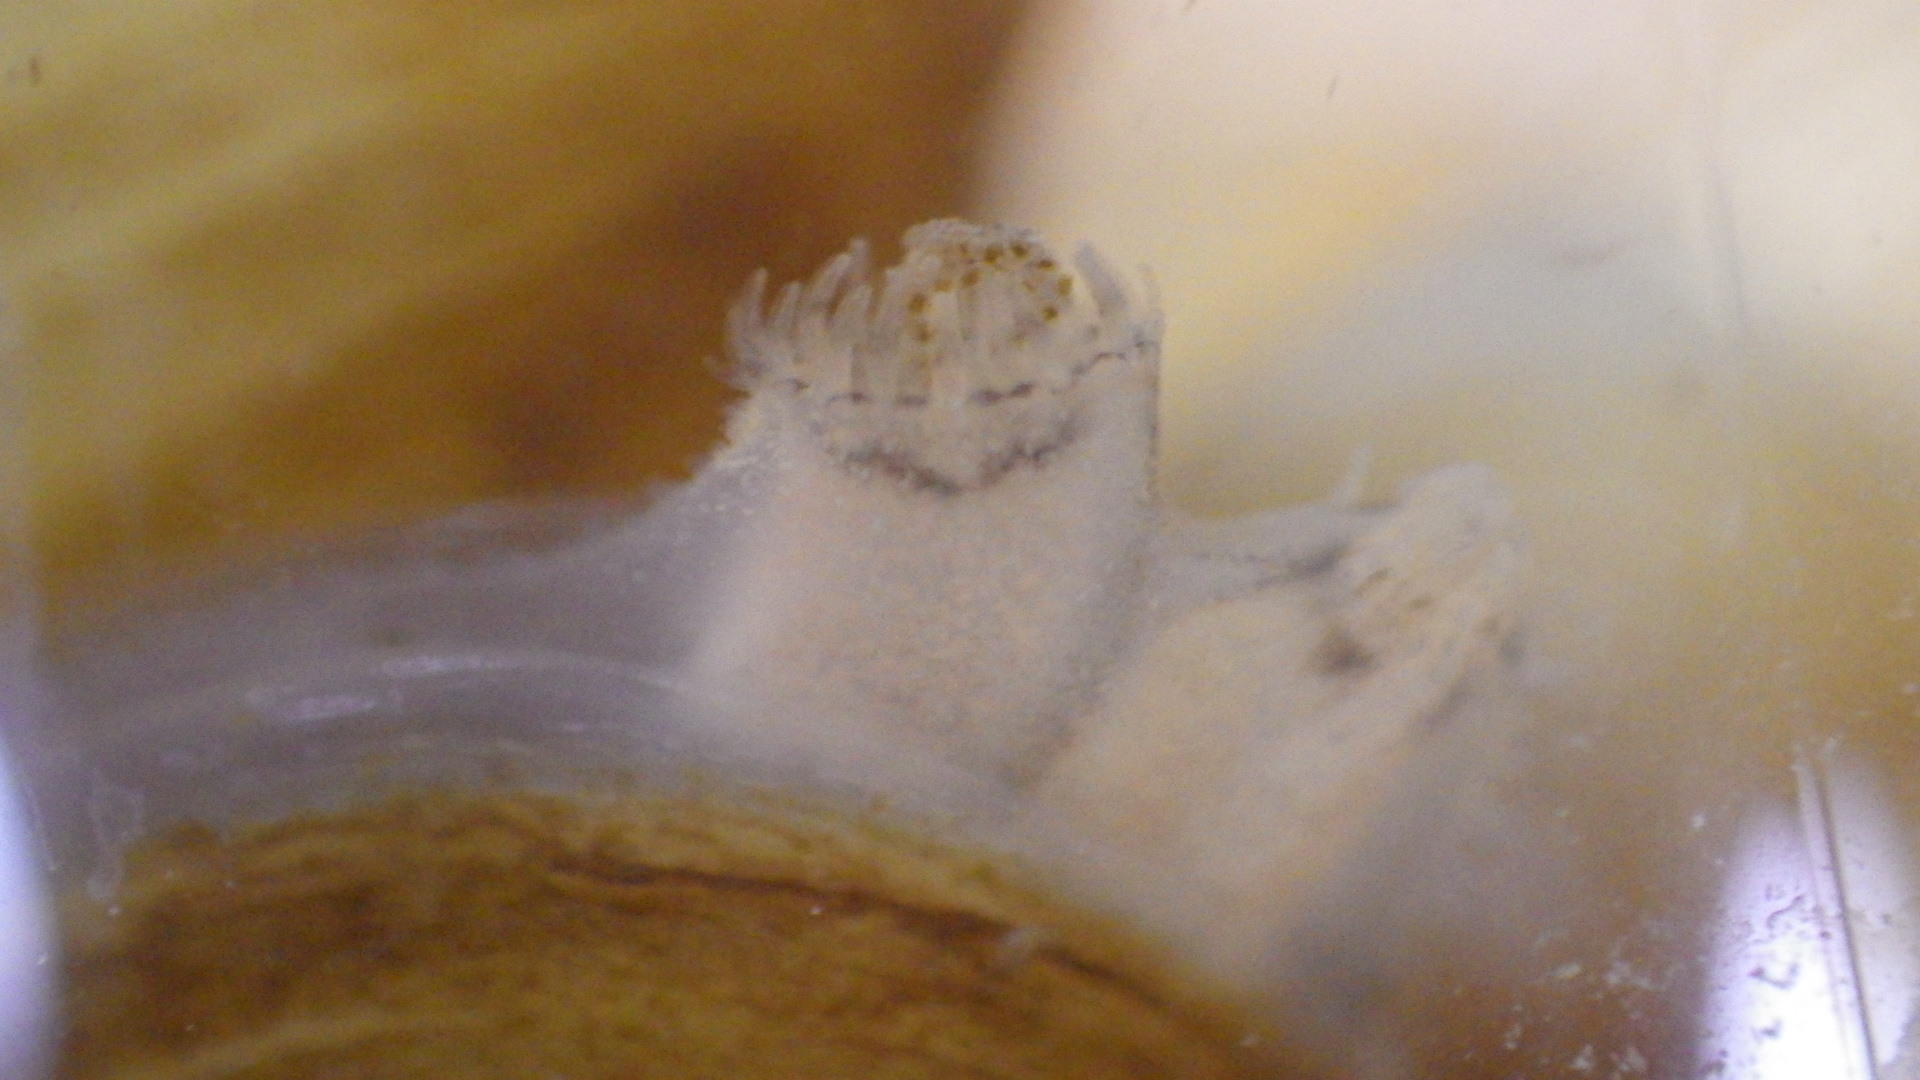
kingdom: Animalia
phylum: Mollusca
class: Bivalvia
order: Venerida
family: Cyrenidae
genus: Corbicula
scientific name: Corbicula fluminea
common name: Asian clam
